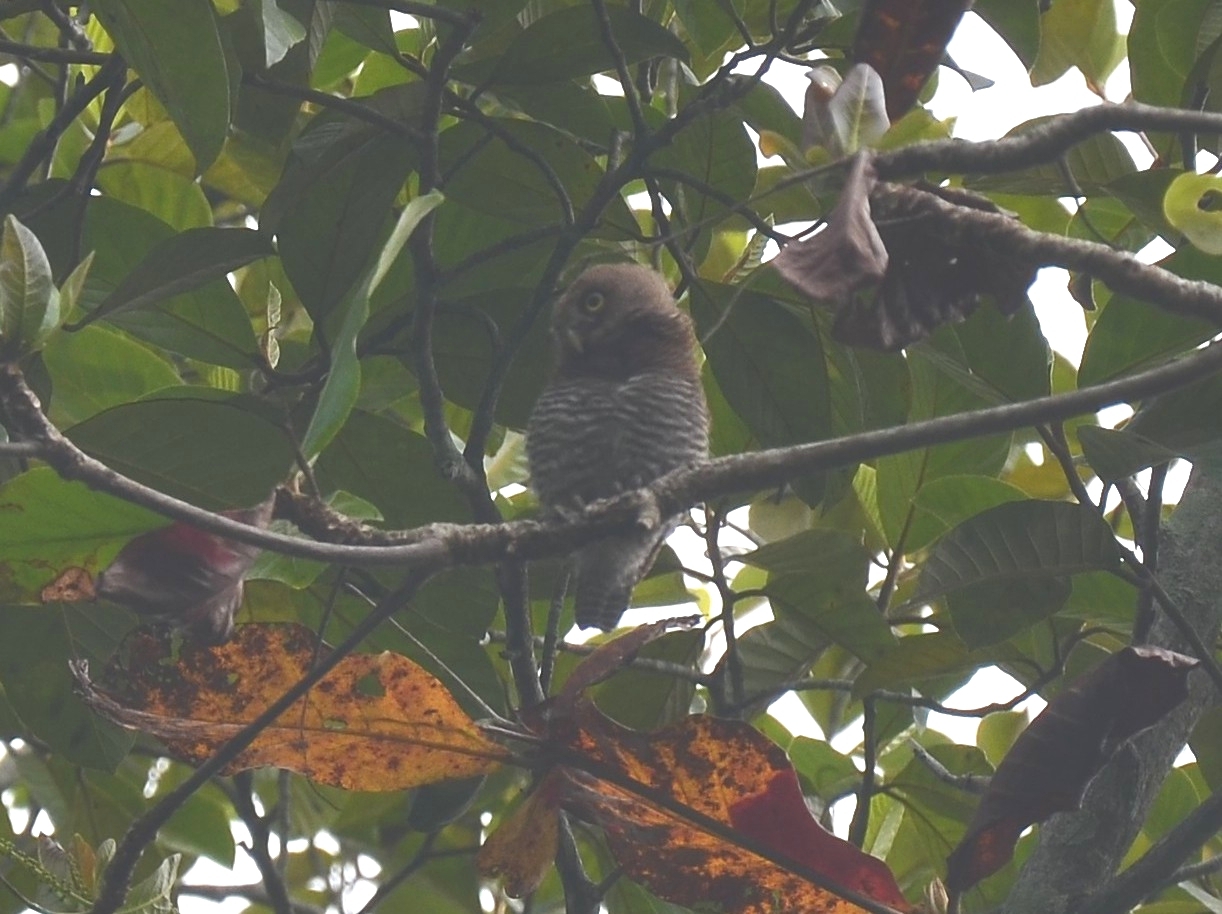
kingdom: Animalia
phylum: Chordata
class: Aves
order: Strigiformes
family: Strigidae
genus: Glaucidium
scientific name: Glaucidium radiatum
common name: Jungle owlet
